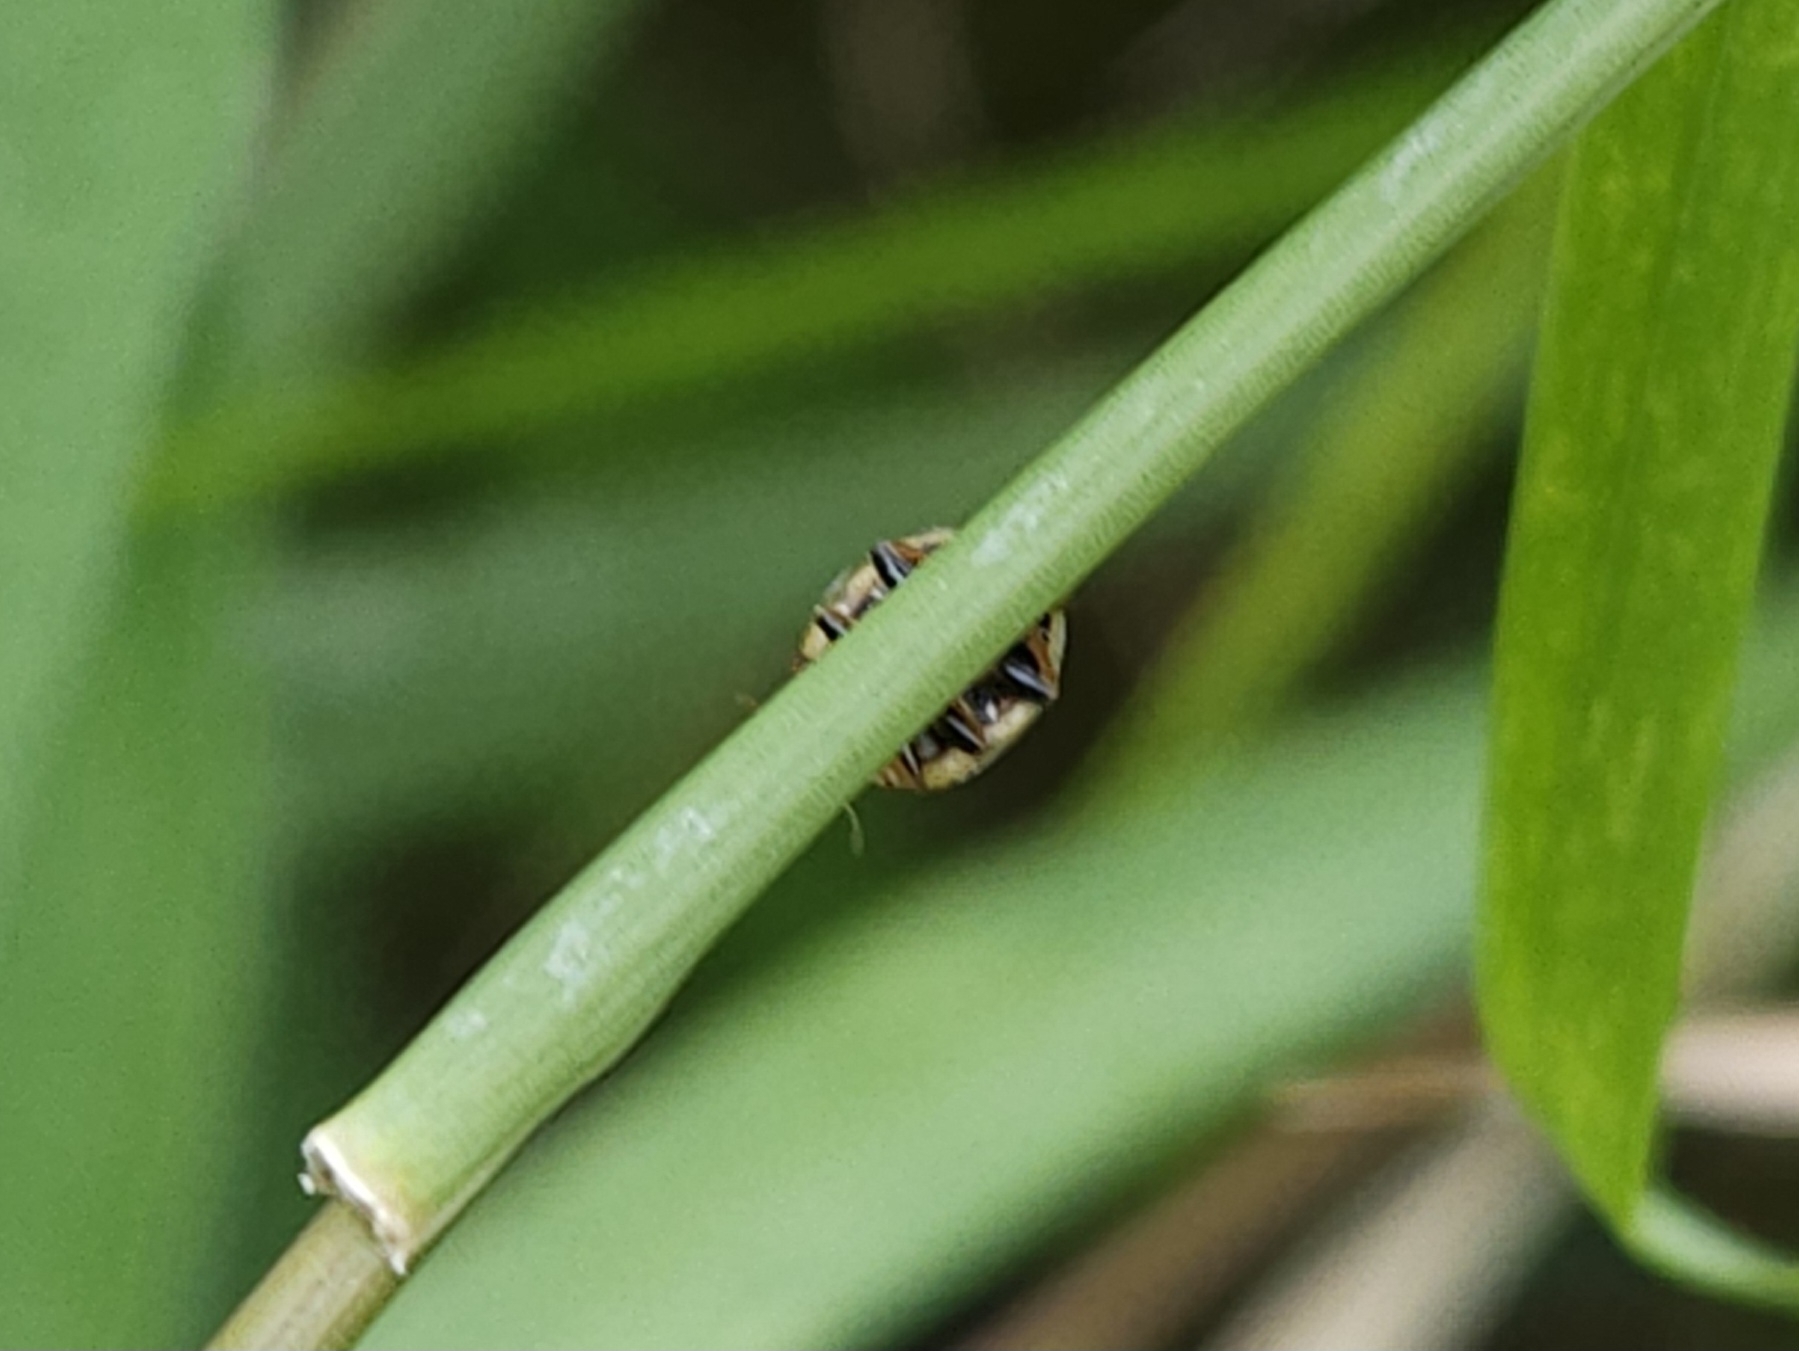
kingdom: Animalia
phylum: Arthropoda
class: Insecta
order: Coleoptera
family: Coccinellidae
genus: Propylaea
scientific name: Propylaea quatuordecimpunctata
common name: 14-spotted ladybird beetle
